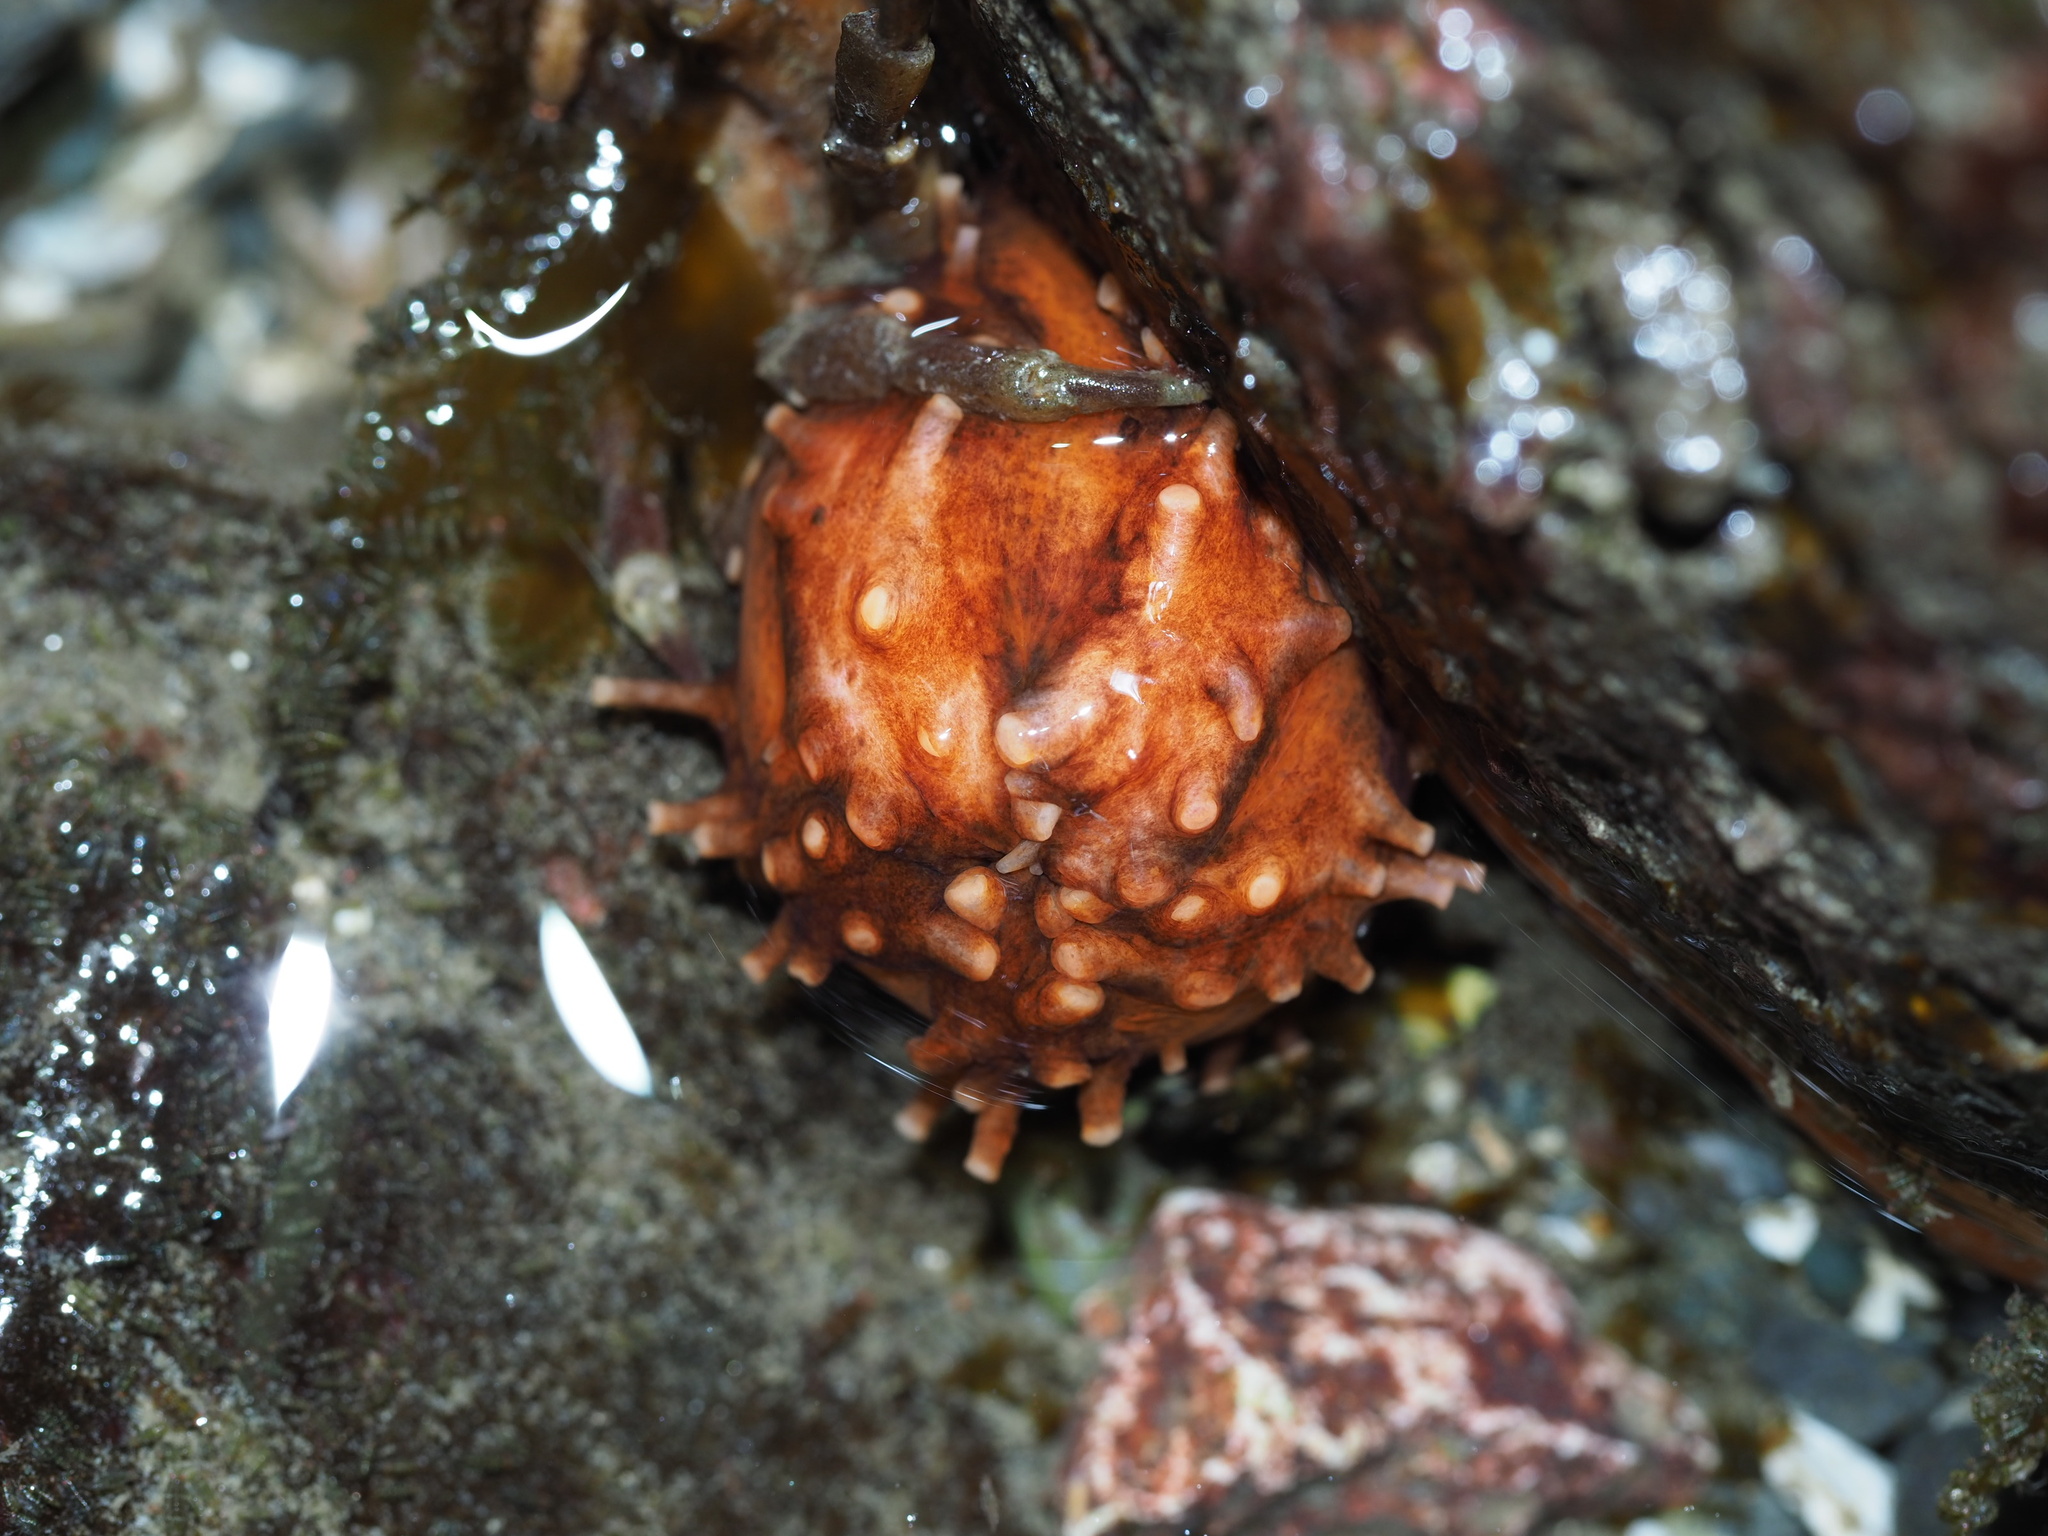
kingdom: Animalia
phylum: Echinodermata
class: Holothuroidea
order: Dendrochirotida
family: Cucumariidae
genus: Cucumaria
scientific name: Cucumaria miniata
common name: Orange sea cucumber
